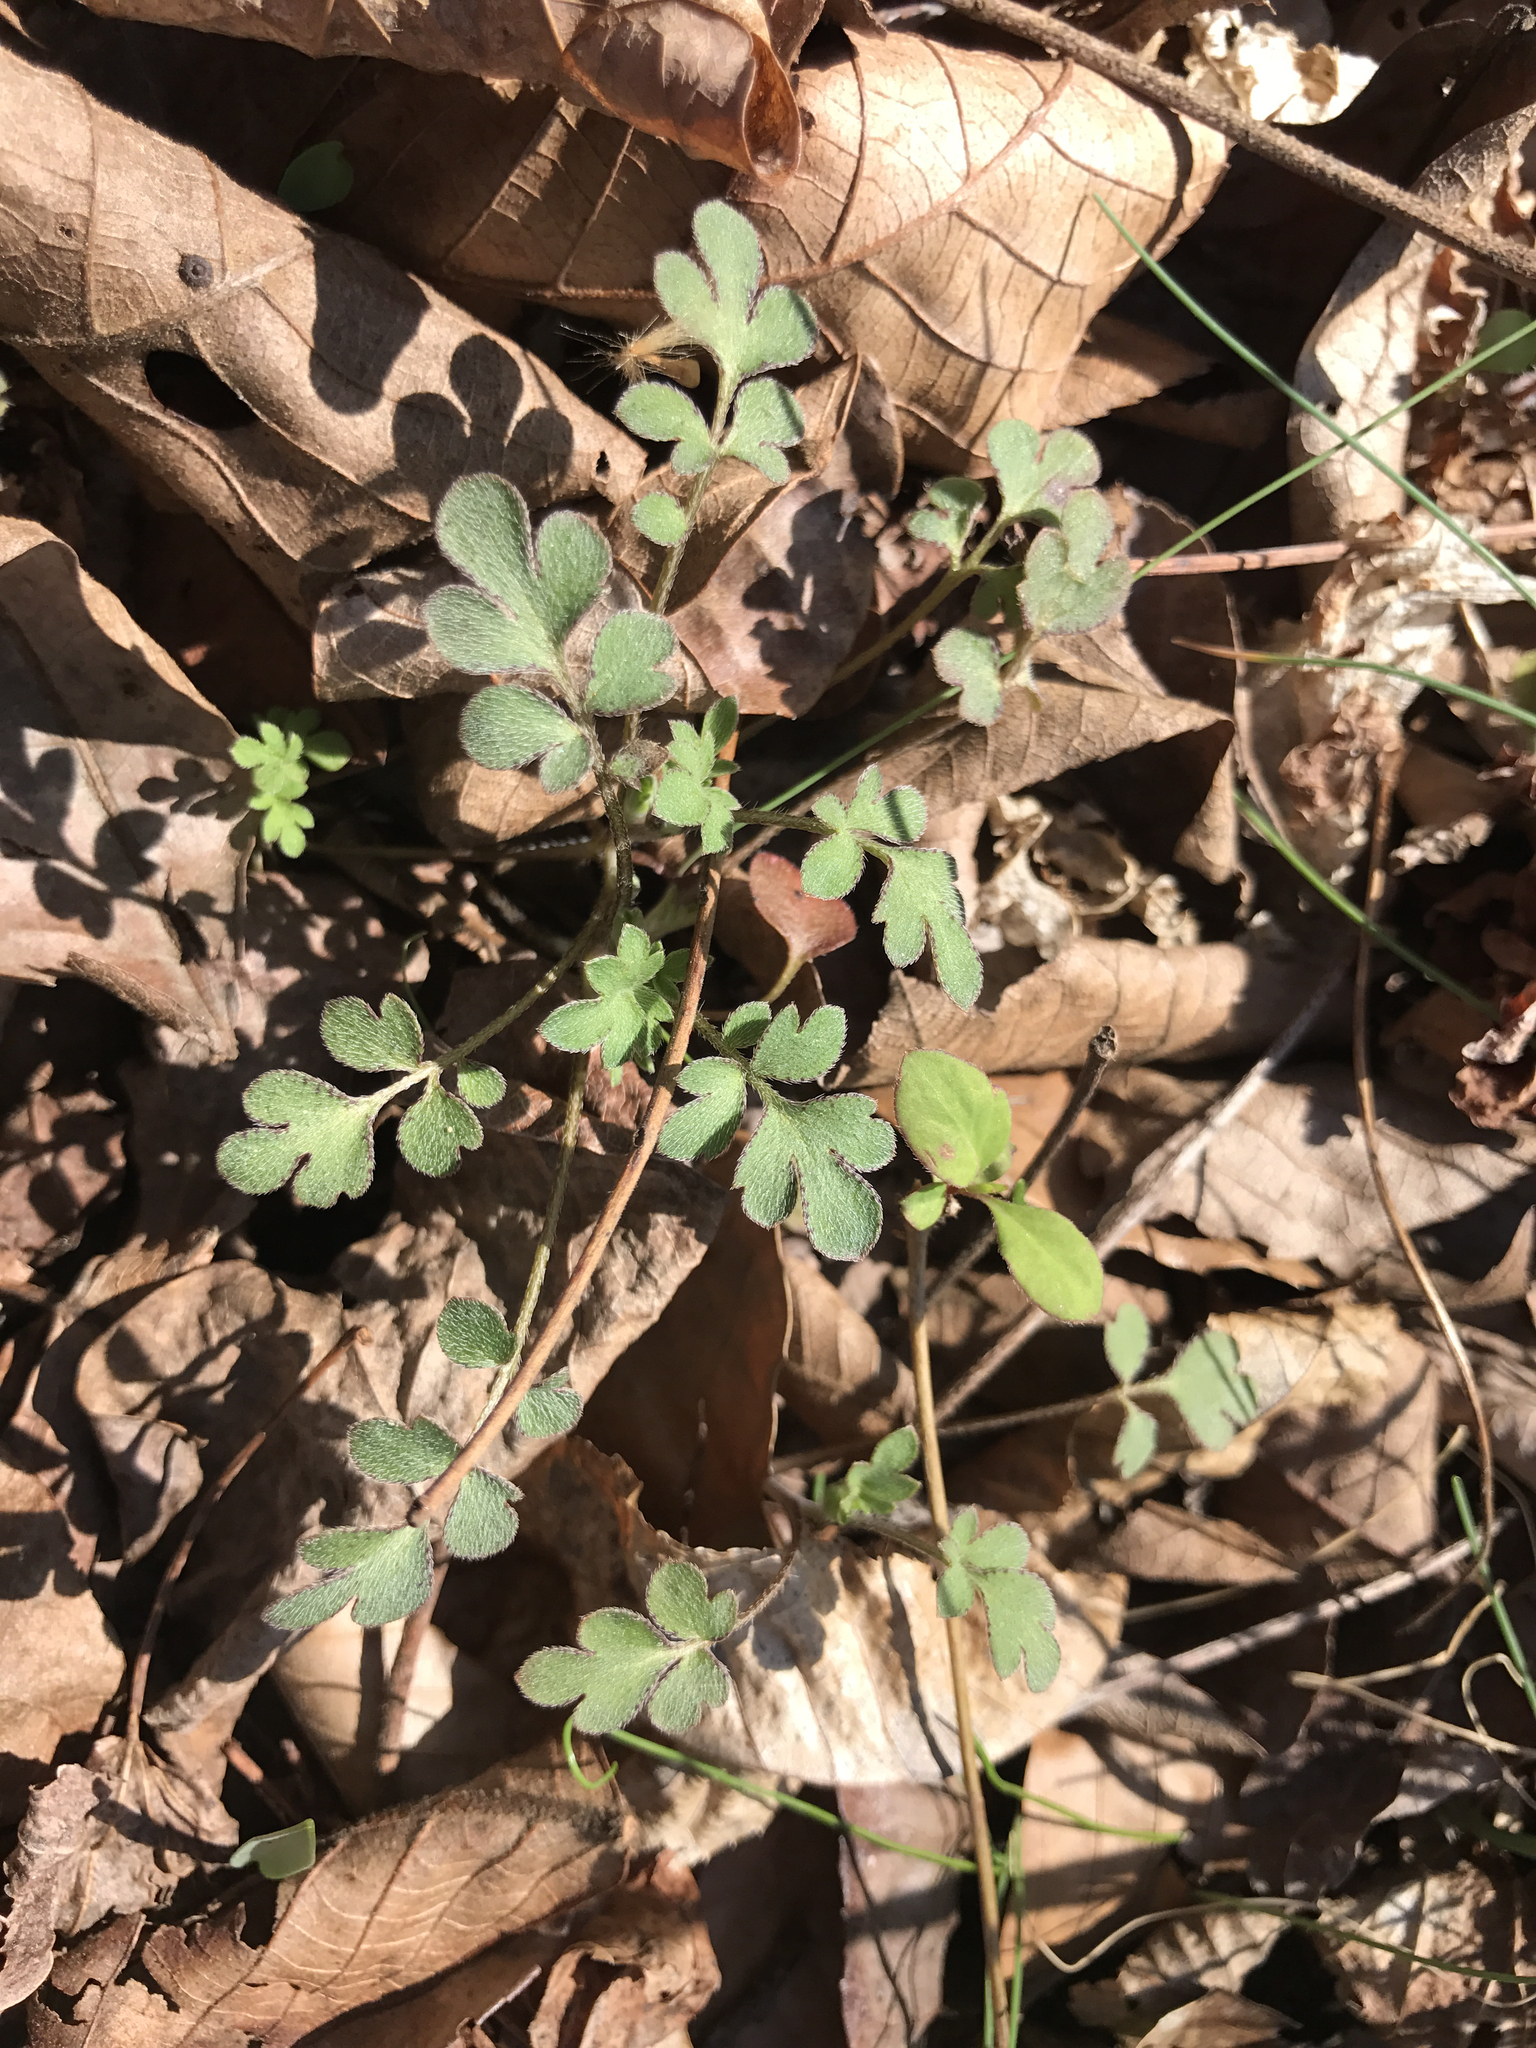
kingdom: Plantae
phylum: Tracheophyta
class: Magnoliopsida
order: Boraginales
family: Hydrophyllaceae
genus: Phacelia
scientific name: Phacelia covillei
